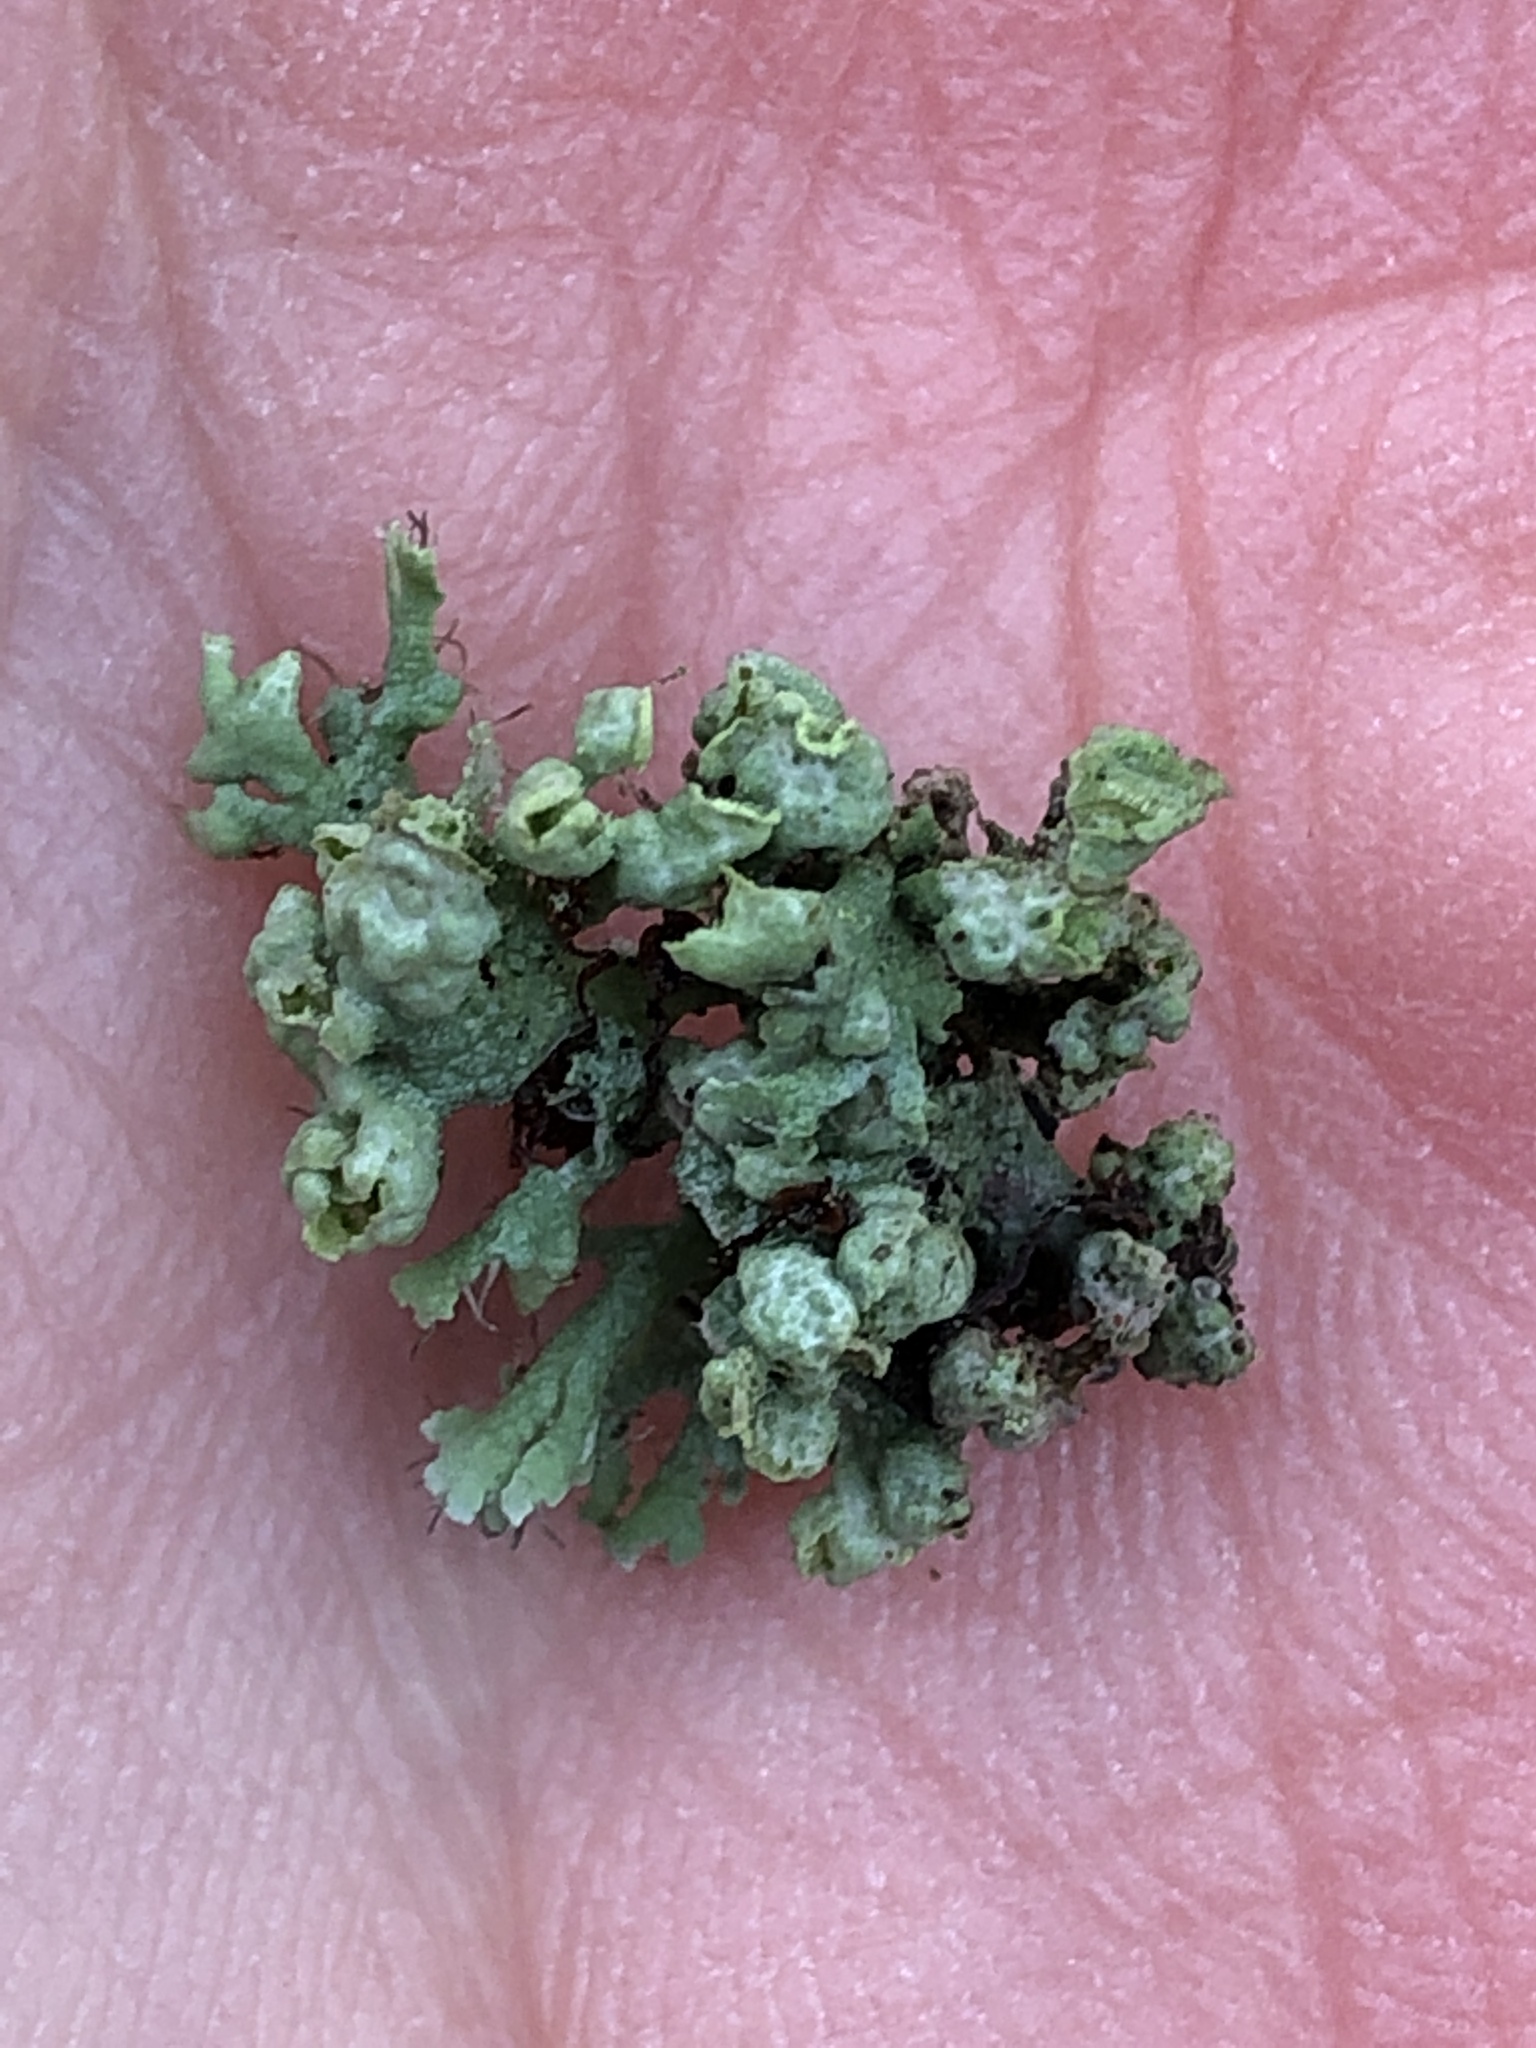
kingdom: Fungi
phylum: Ascomycota
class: Lecanoromycetes
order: Caliciales
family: Physciaceae
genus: Physcia
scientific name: Physcia adscendens
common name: Hooded rosette lichen
